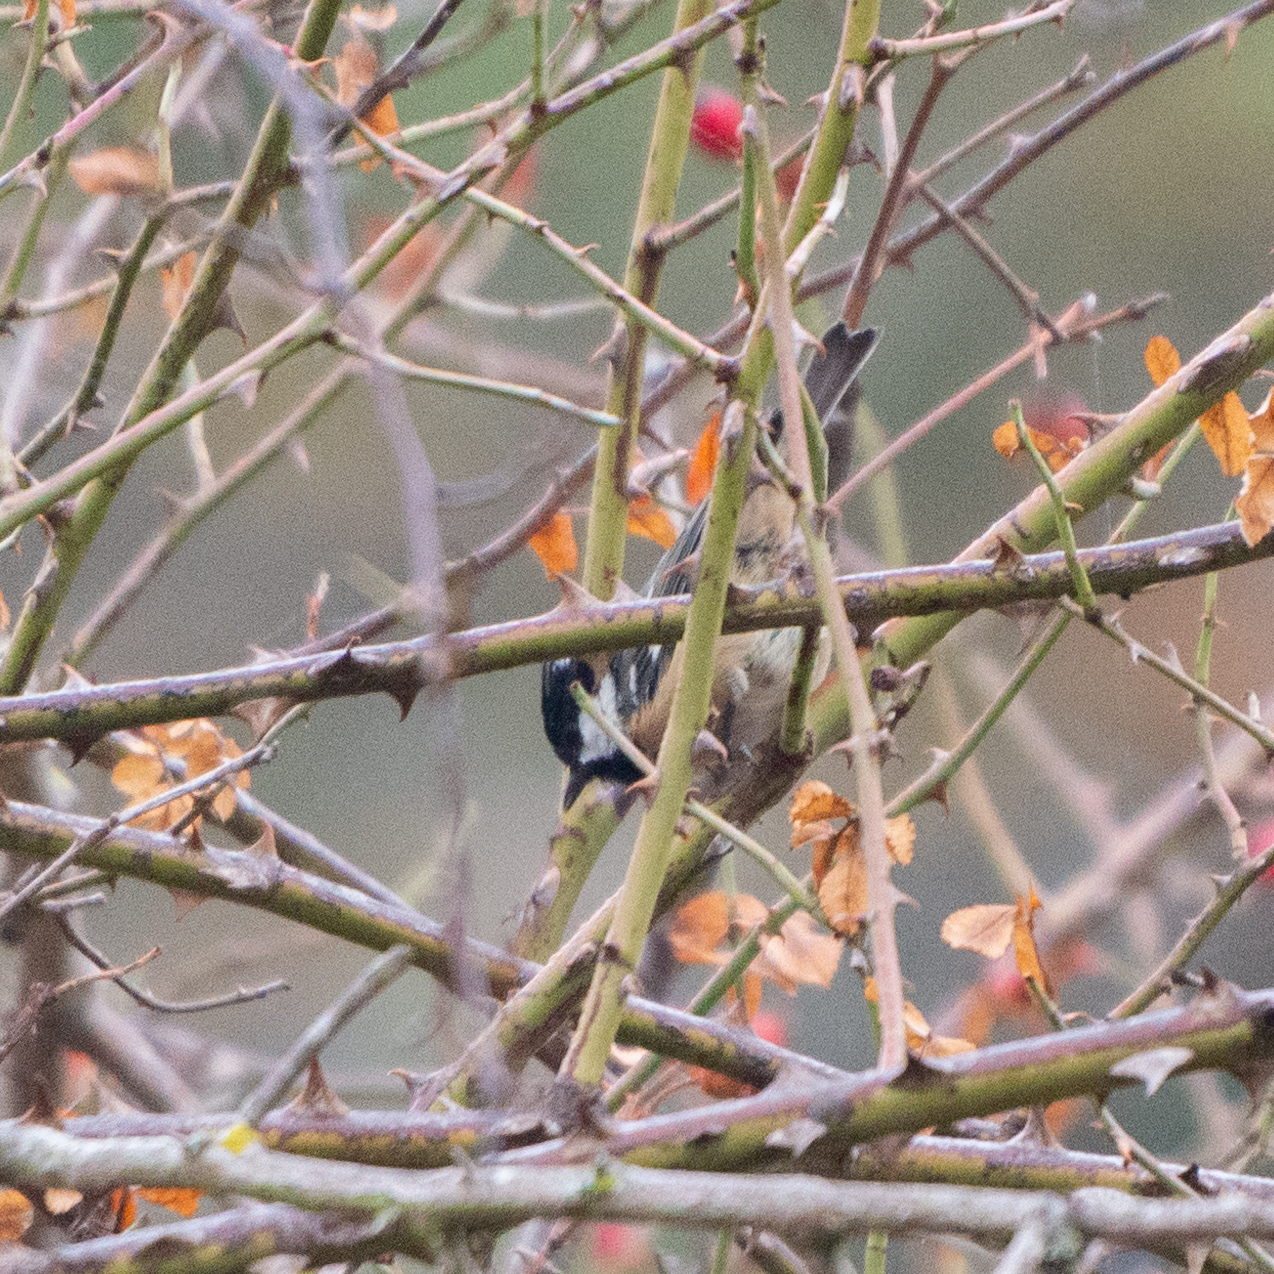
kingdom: Animalia
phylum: Chordata
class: Aves
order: Passeriformes
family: Paridae
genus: Periparus
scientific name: Periparus ater
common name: Coal tit
